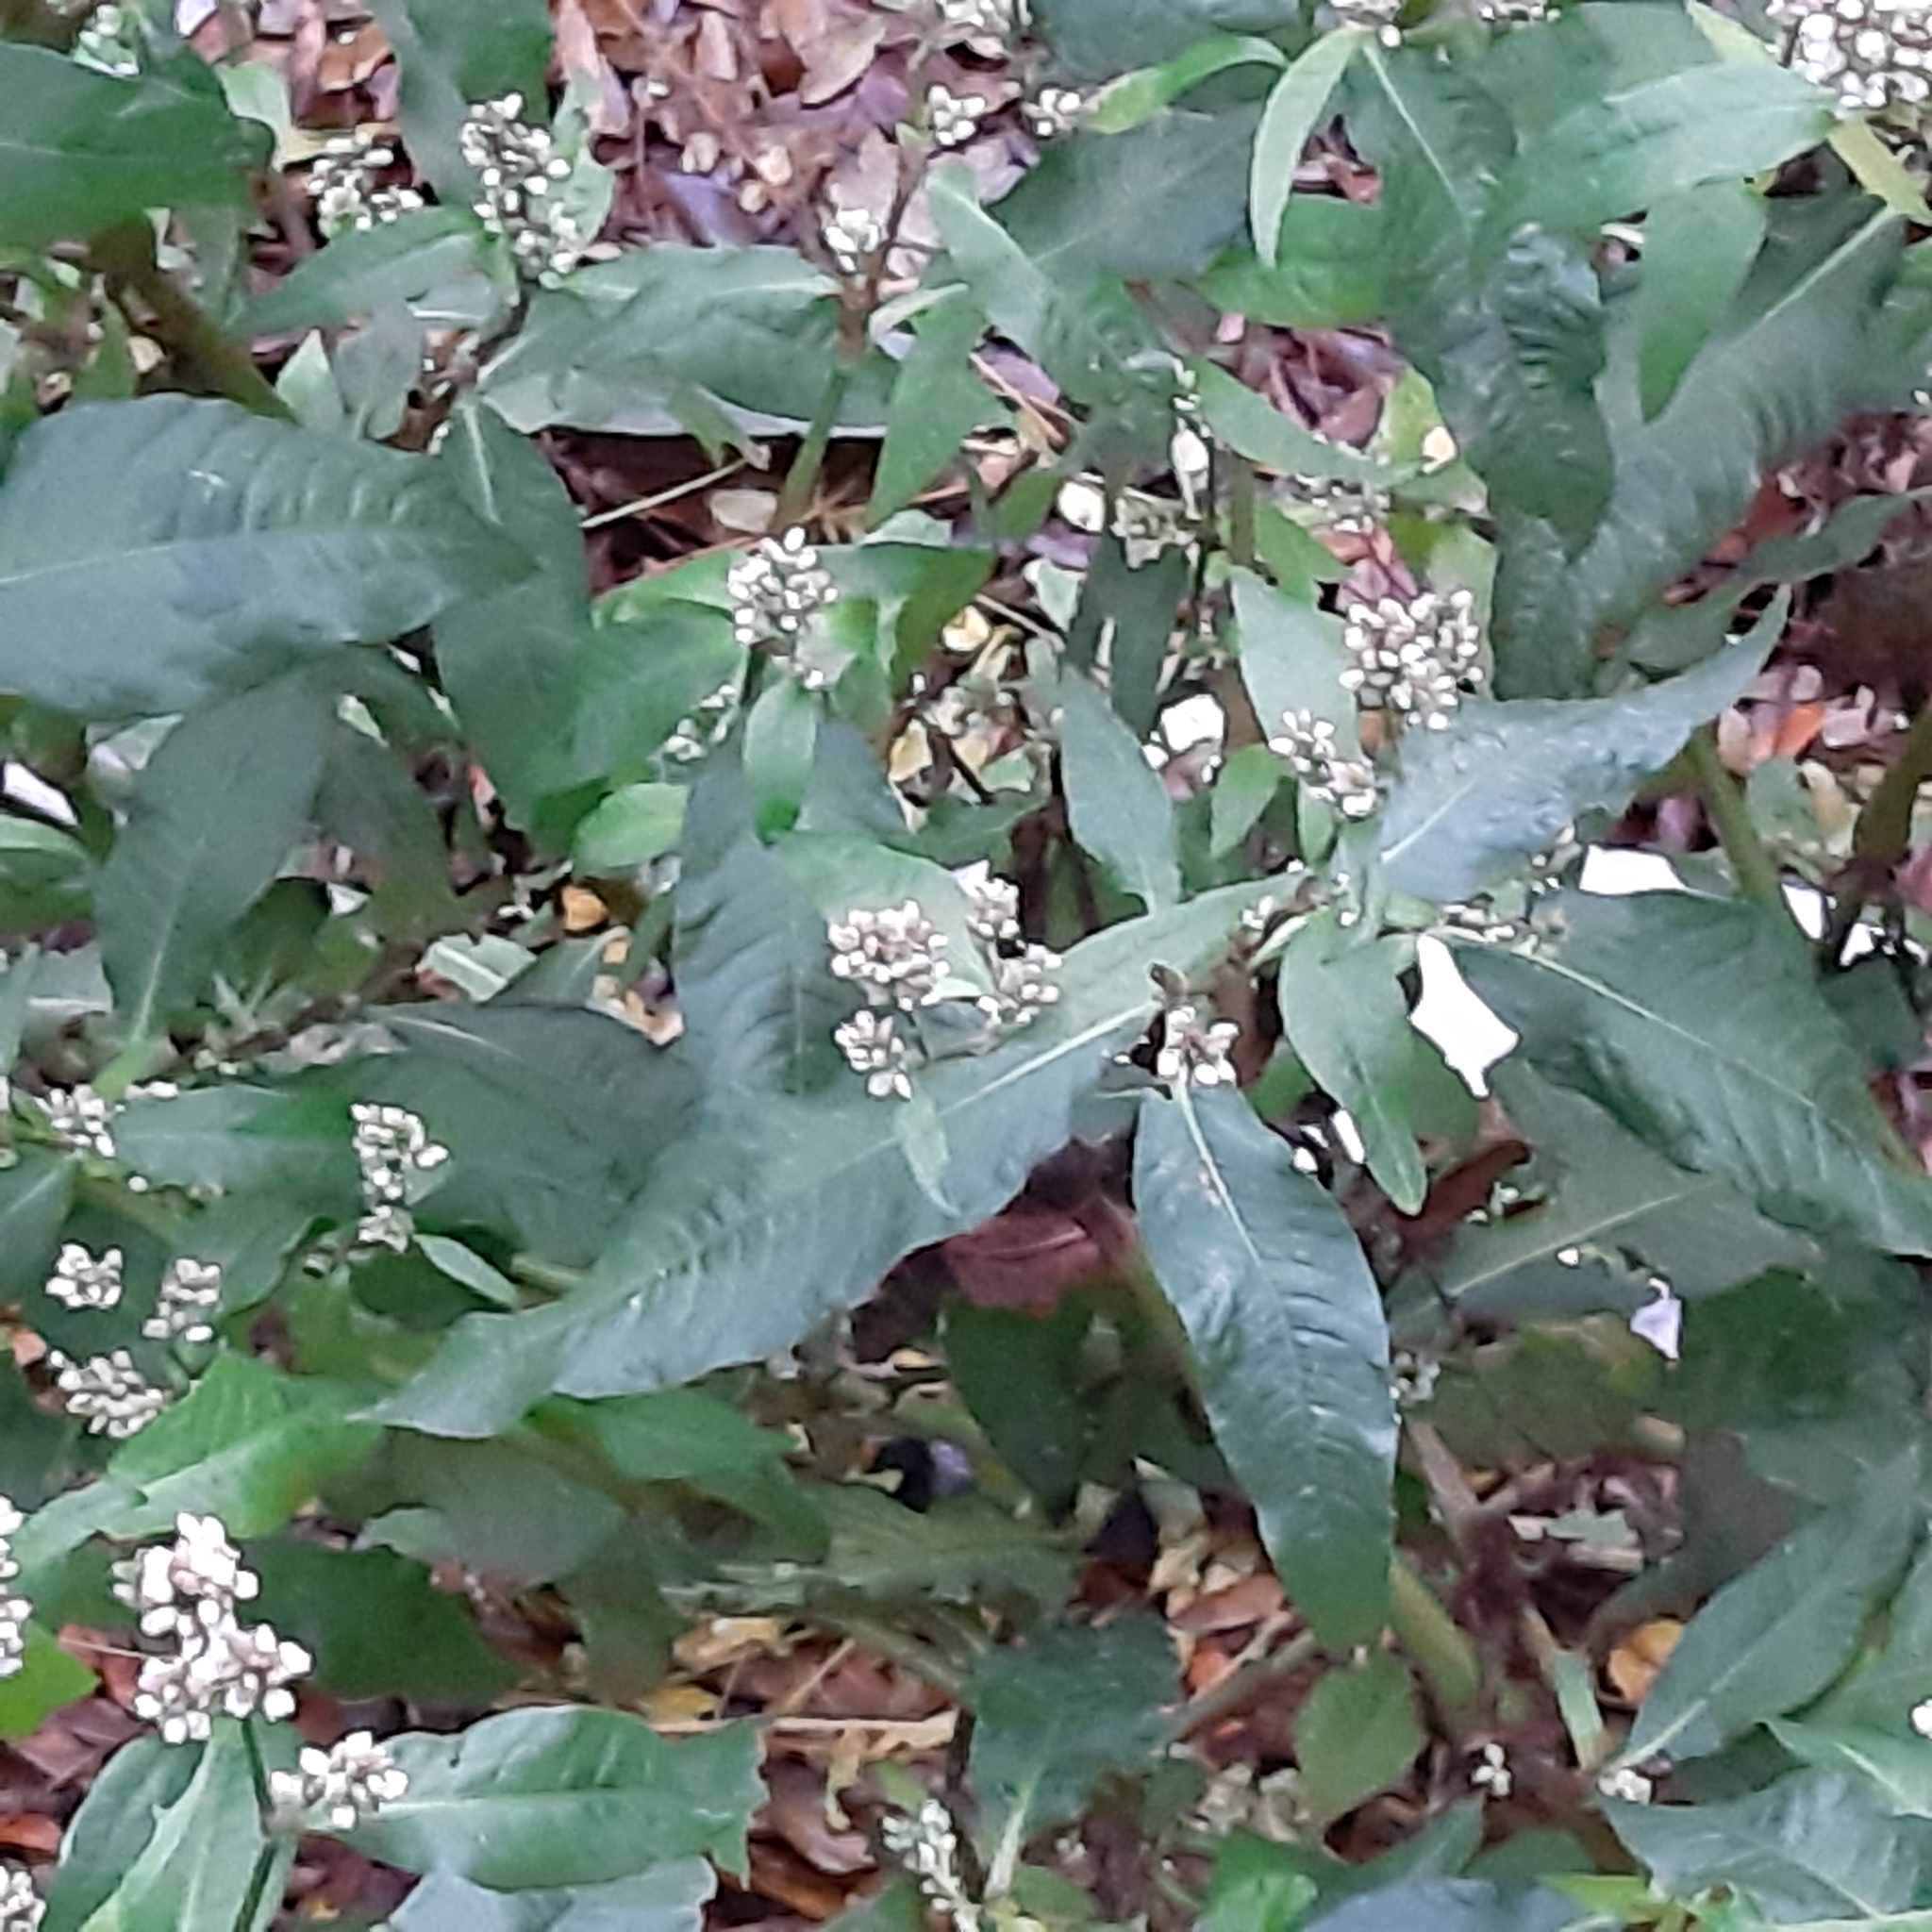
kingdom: Plantae
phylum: Tracheophyta
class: Magnoliopsida
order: Caryophyllales
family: Polygonaceae
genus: Persicaria
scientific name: Persicaria lapathifolia
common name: Curlytop knotweed
